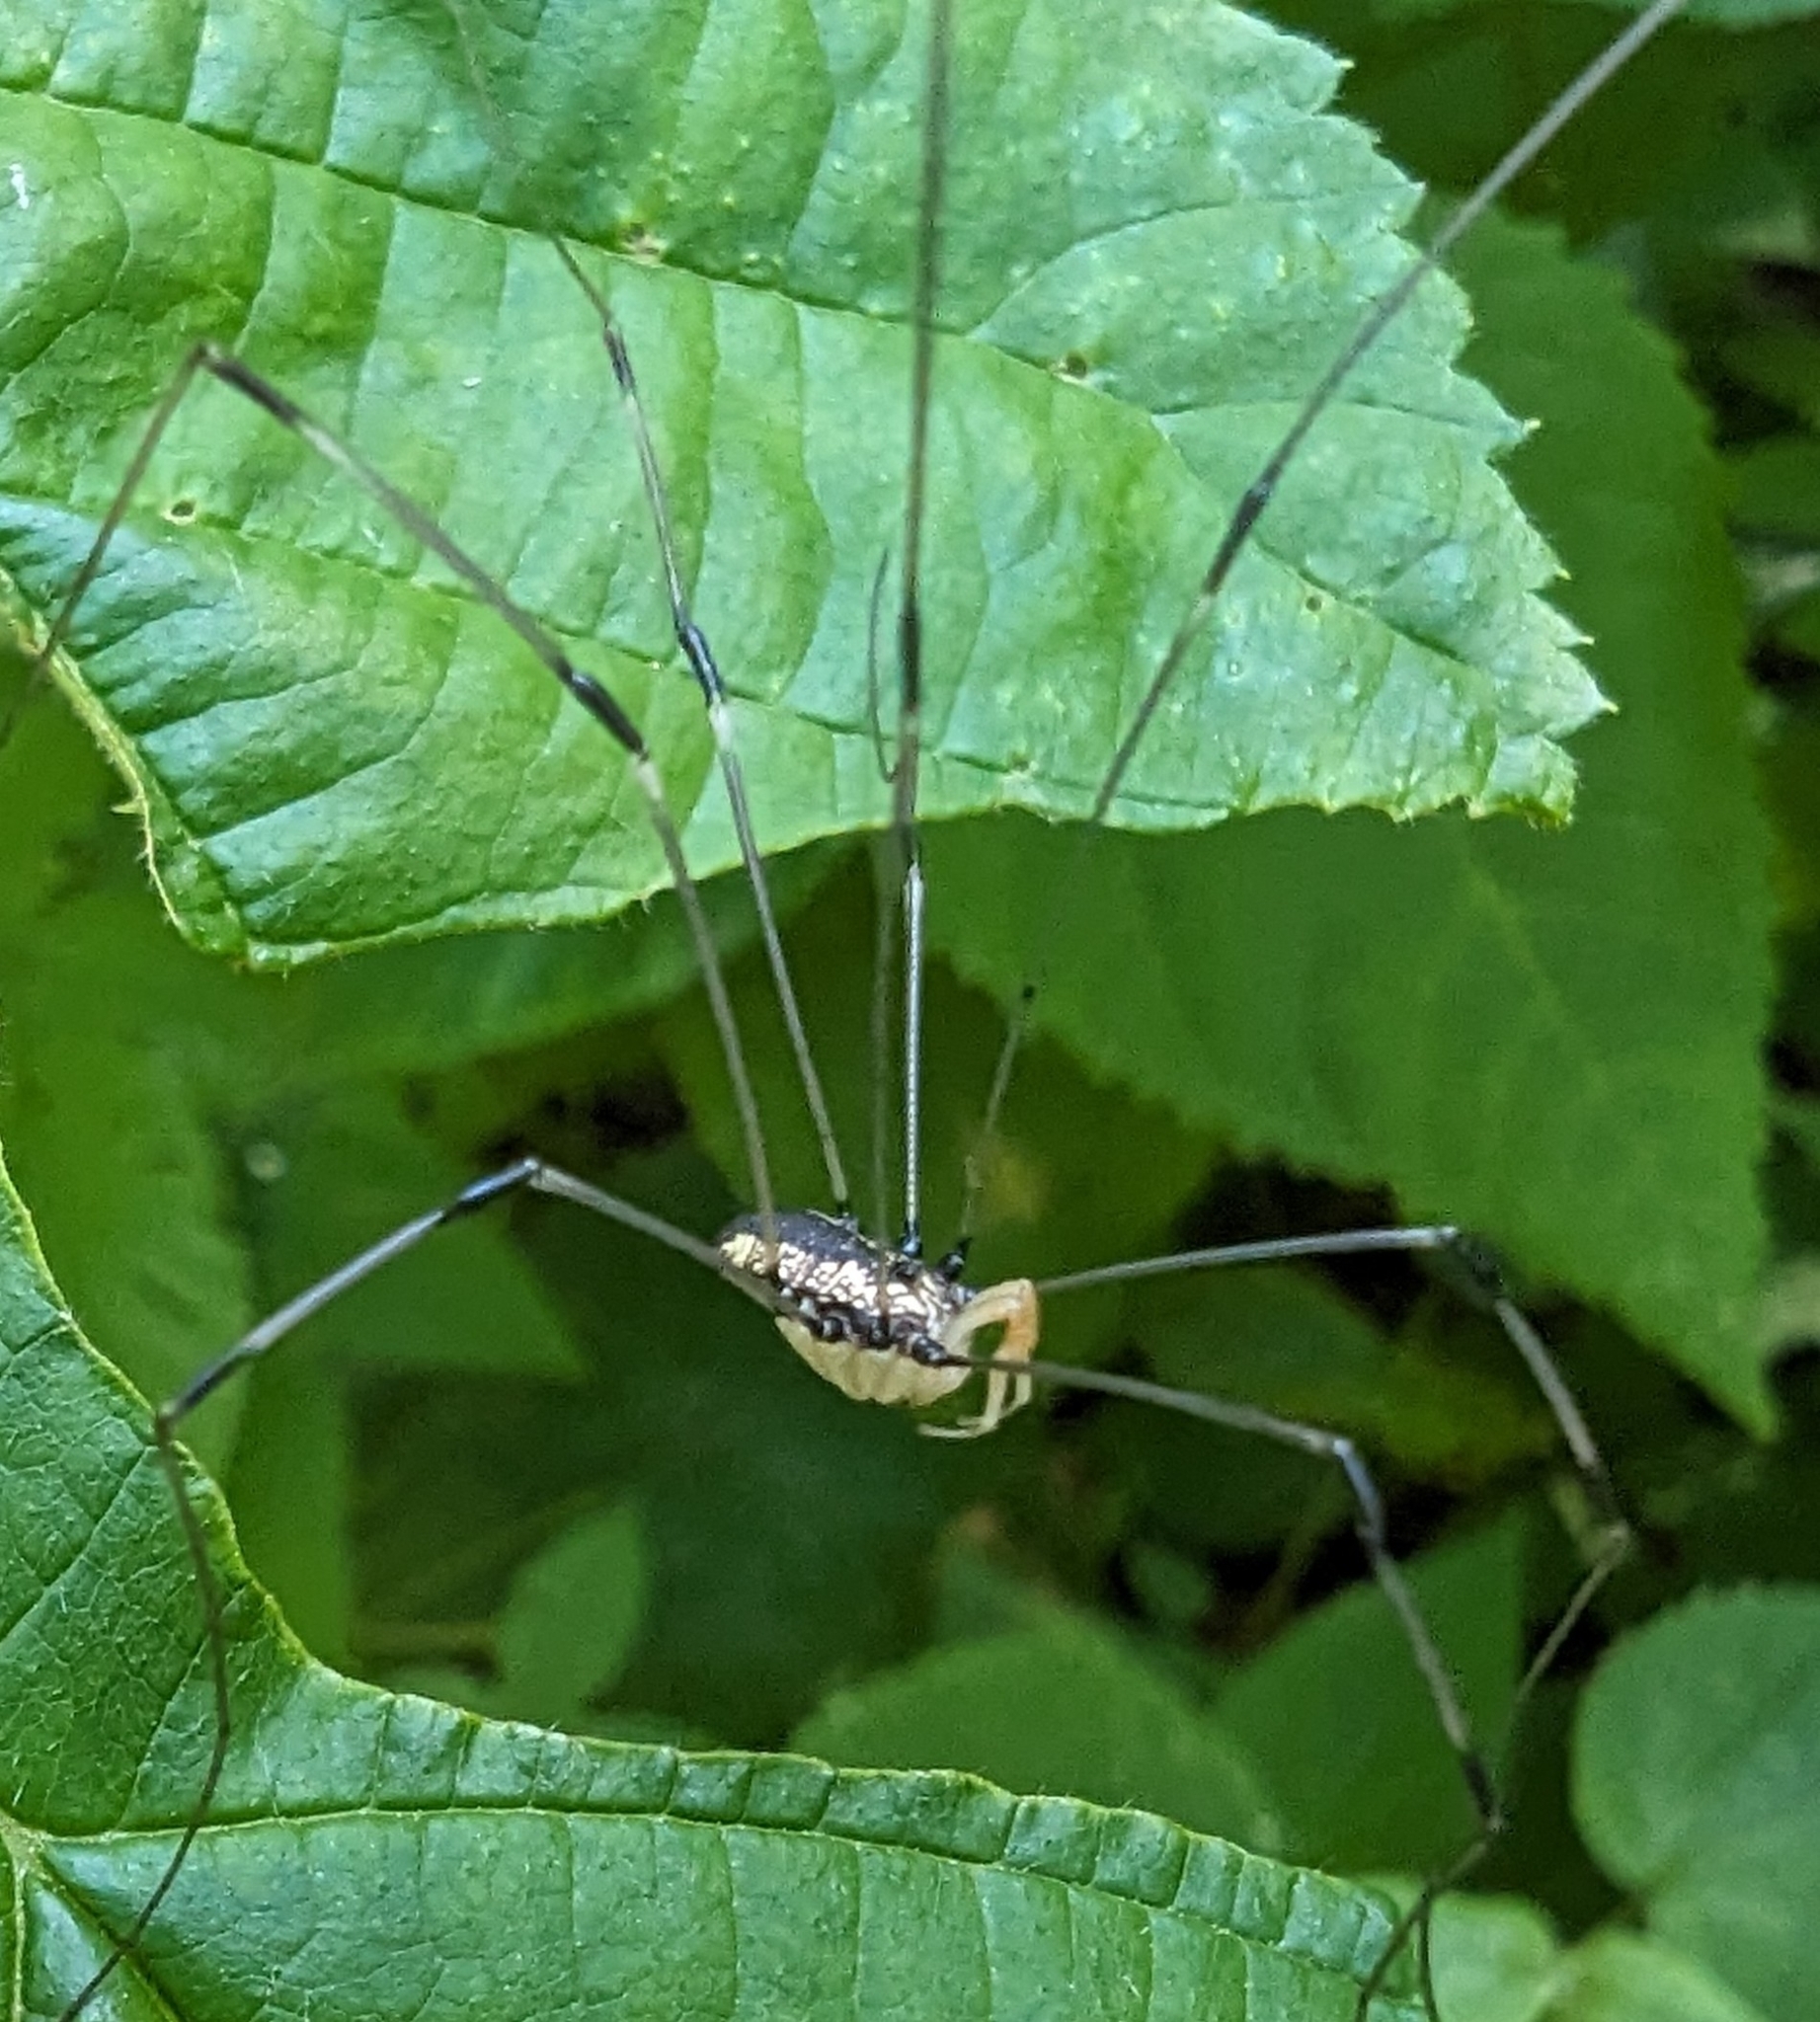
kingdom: Animalia
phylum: Arthropoda
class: Arachnida
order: Opiliones
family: Sclerosomatidae
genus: Leiobunum
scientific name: Leiobunum vittatum
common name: Eastern harvestman
